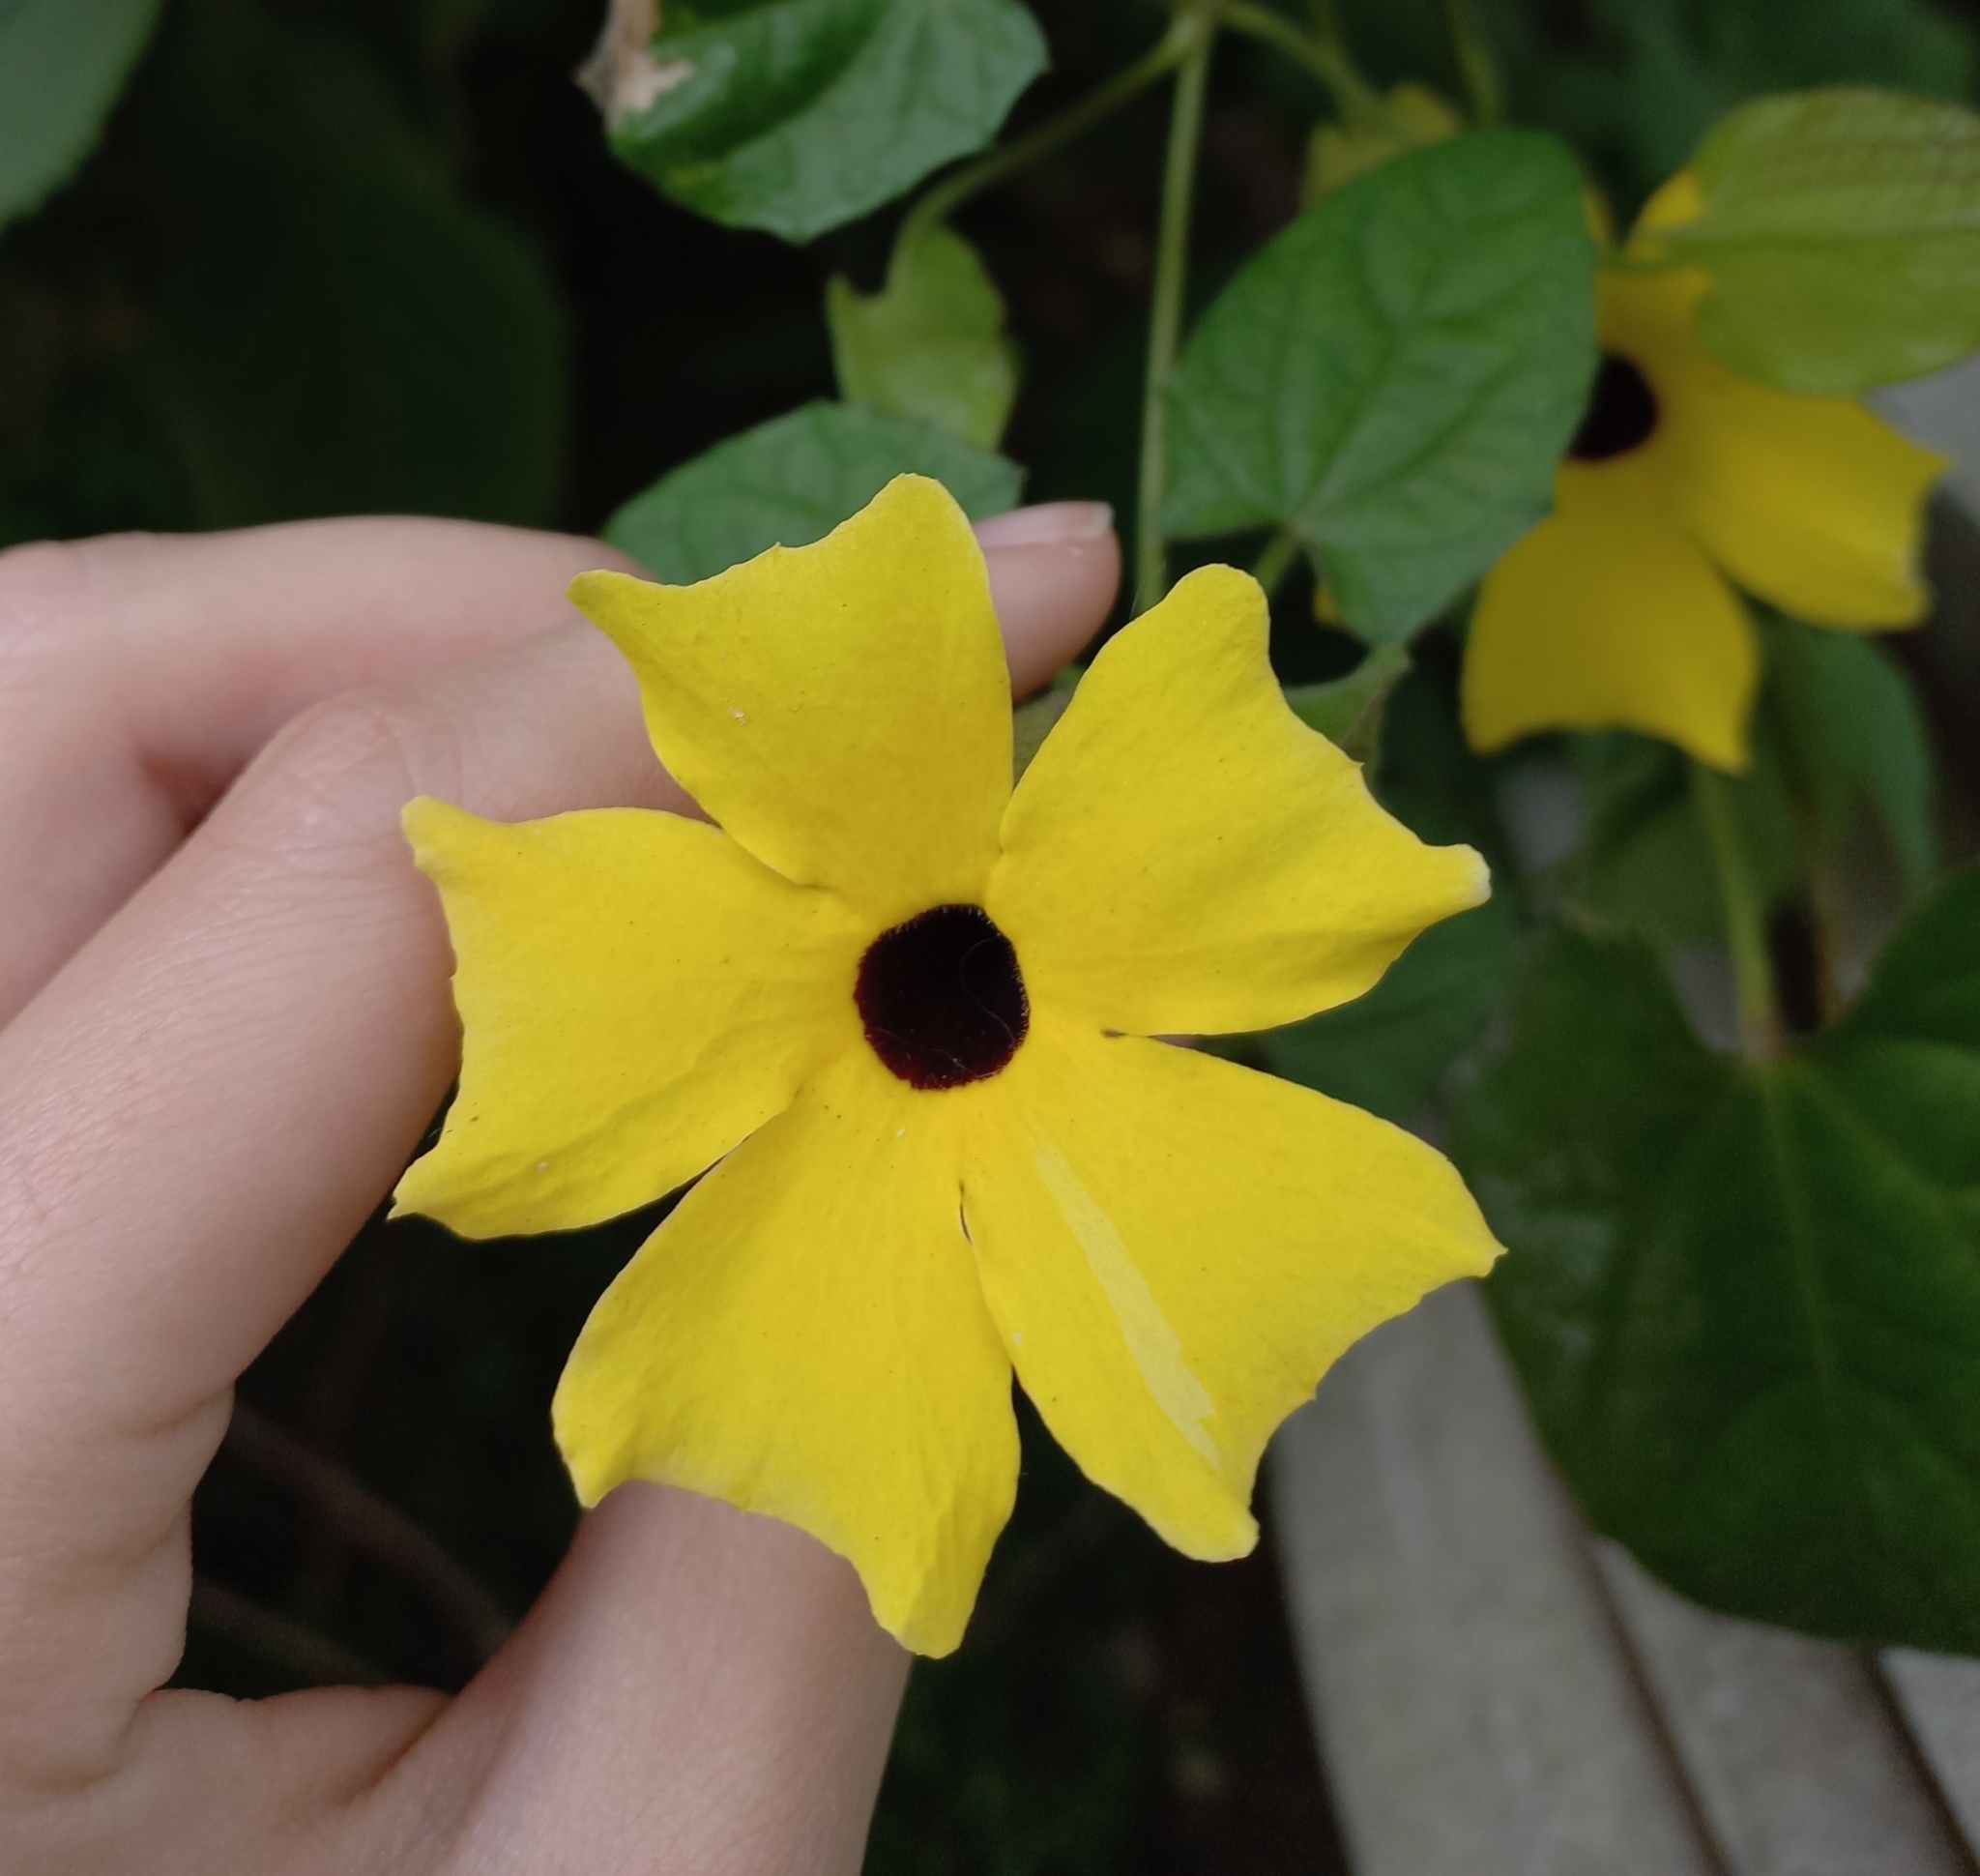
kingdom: Plantae
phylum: Tracheophyta
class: Magnoliopsida
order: Lamiales
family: Acanthaceae
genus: Thunbergia
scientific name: Thunbergia alata
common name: Blackeyed susan vine
